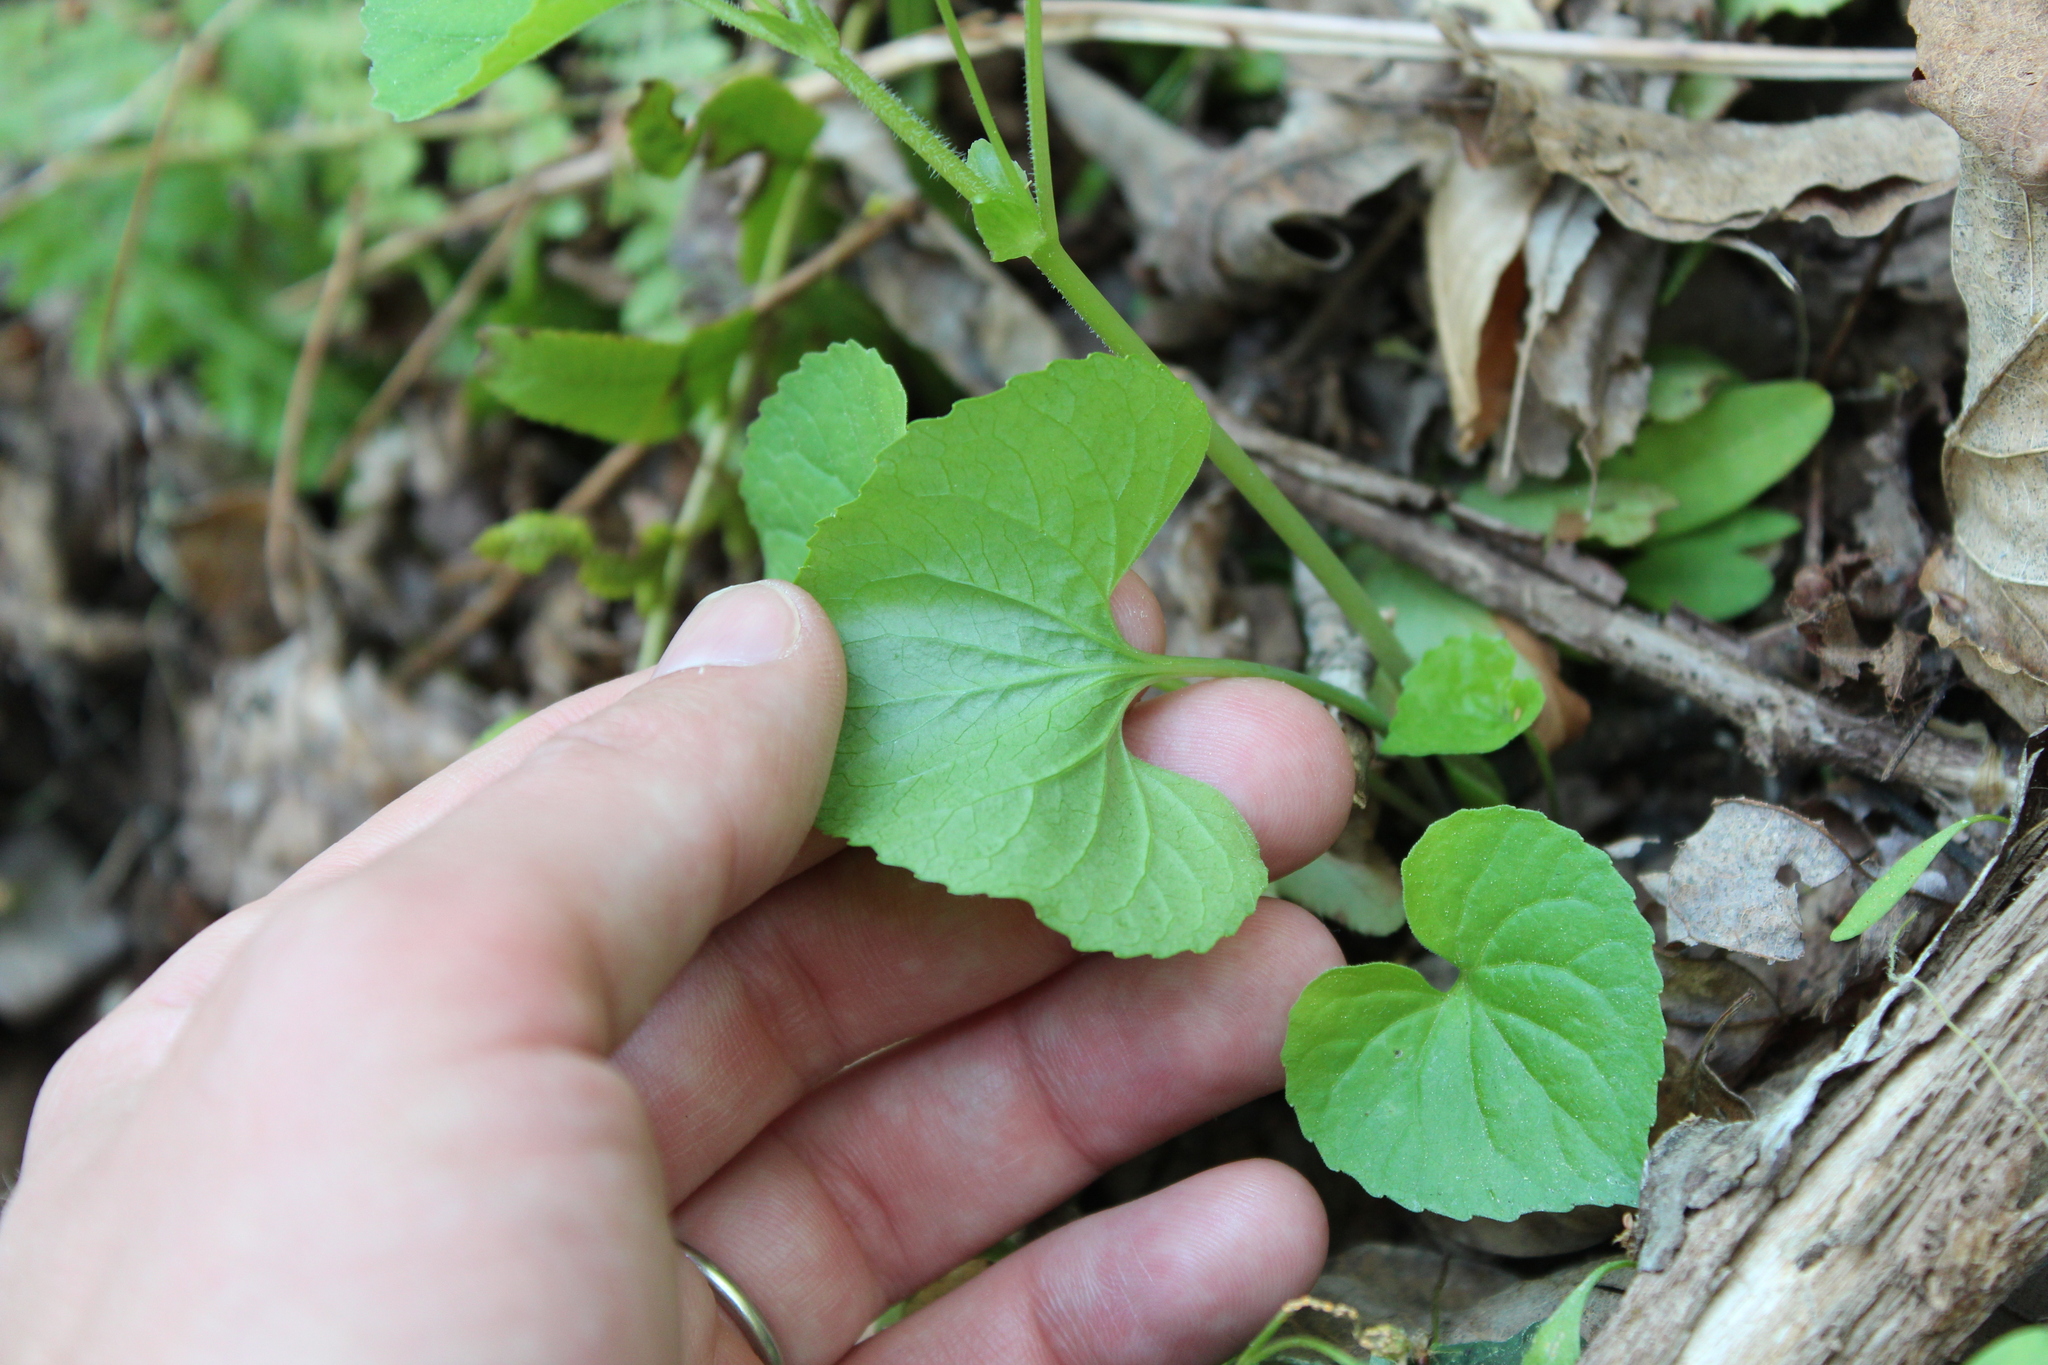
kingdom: Plantae
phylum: Tracheophyta
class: Magnoliopsida
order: Malpighiales
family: Violaceae
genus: Viola
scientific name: Viola eriocarpa
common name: Smooth yellow violet
